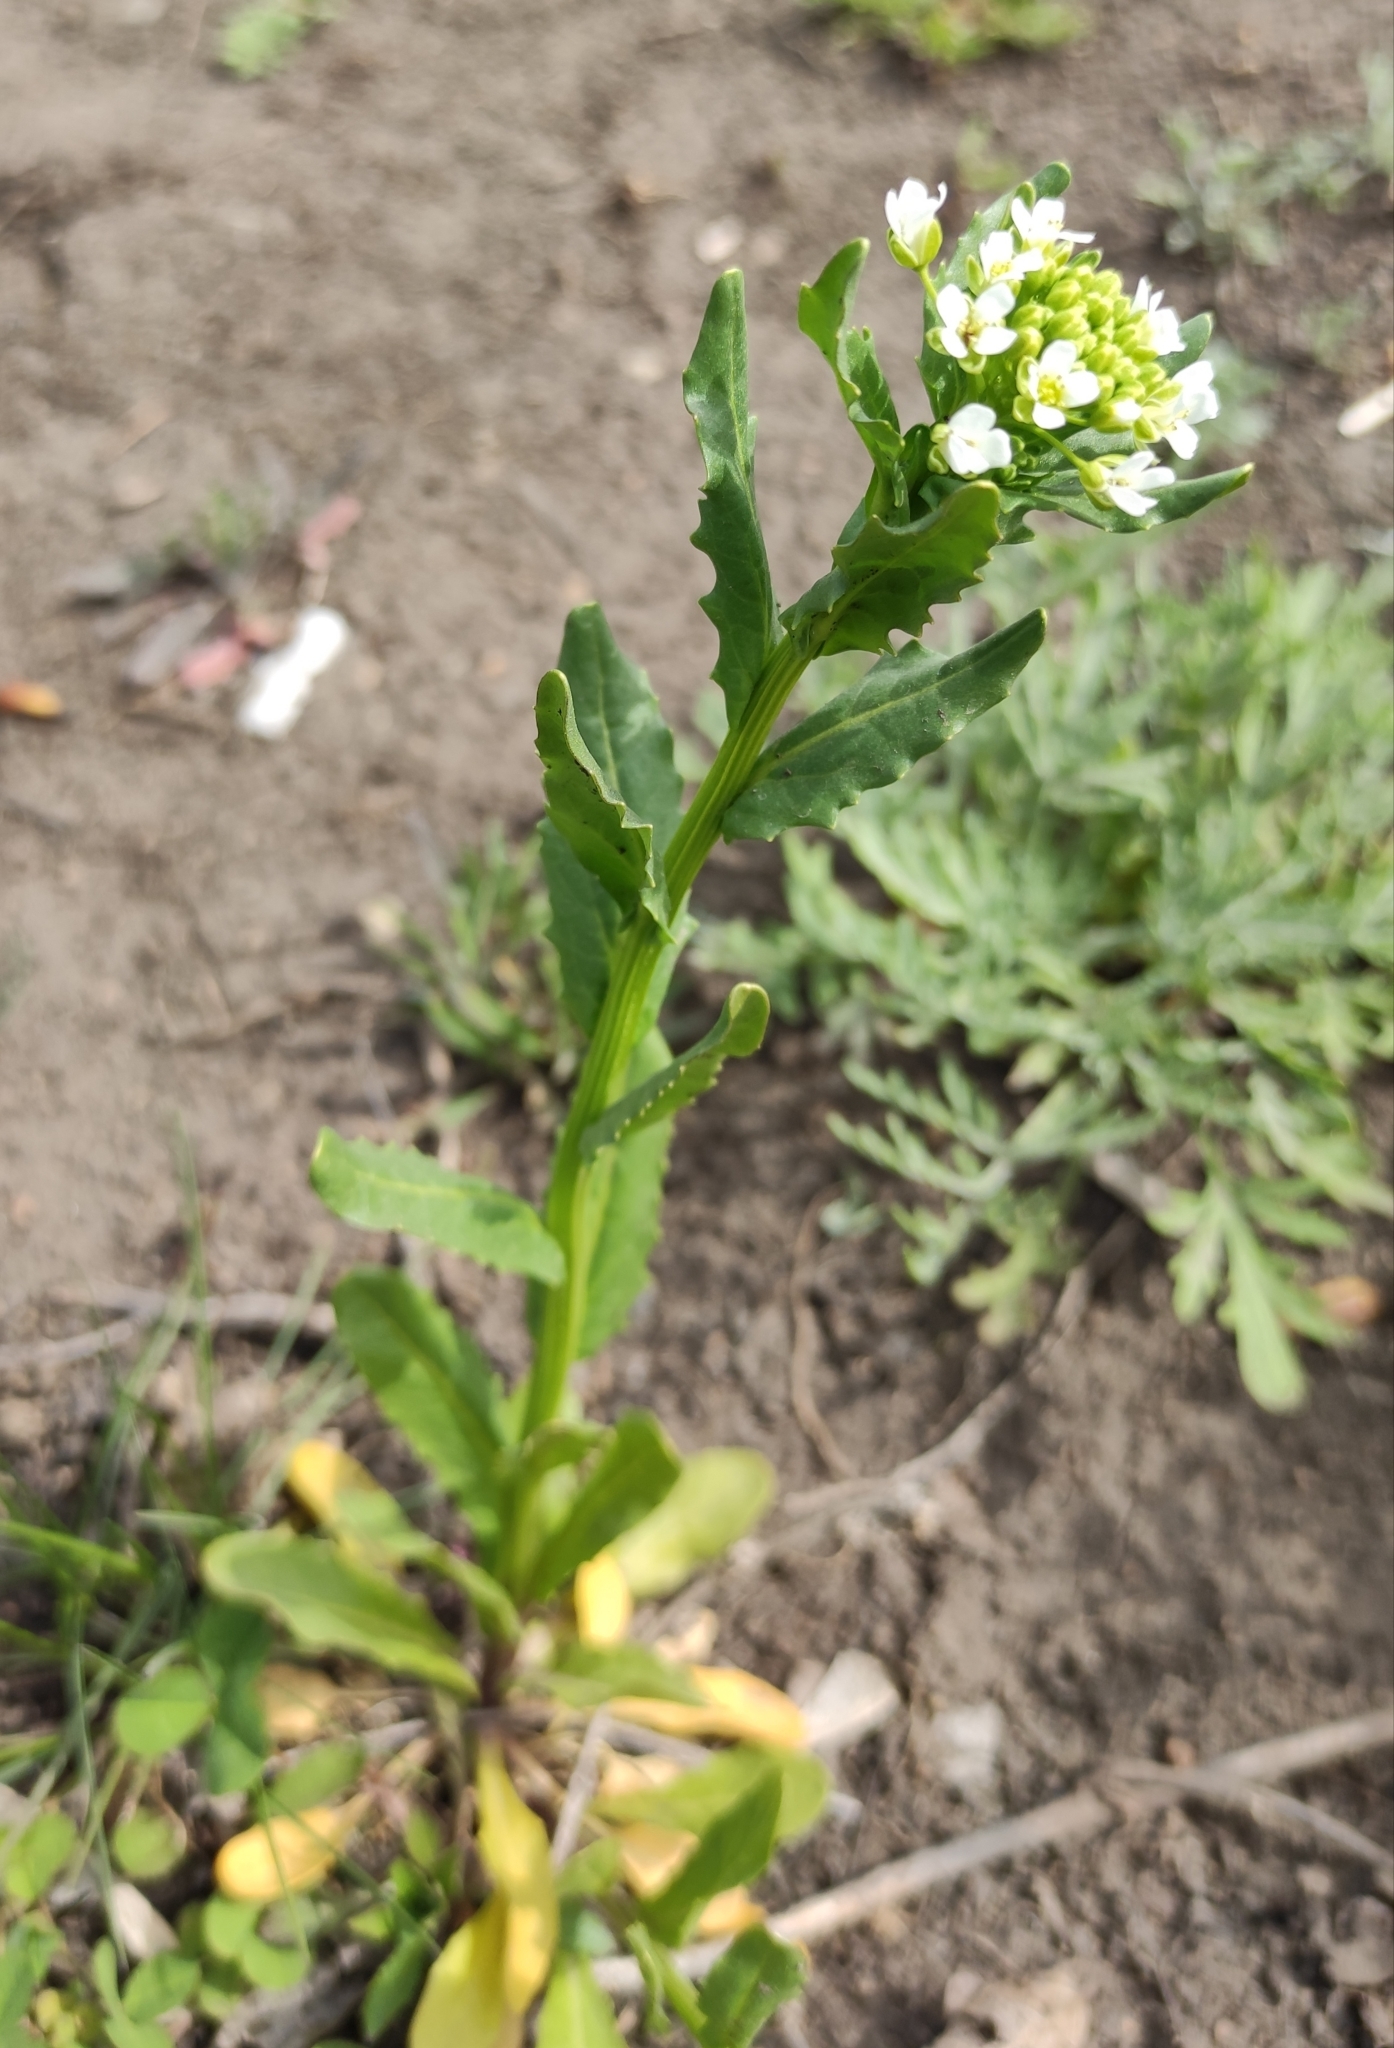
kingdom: Plantae
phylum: Tracheophyta
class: Magnoliopsida
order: Brassicales
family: Brassicaceae
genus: Thlaspi
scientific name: Thlaspi arvense
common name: Field pennycress
